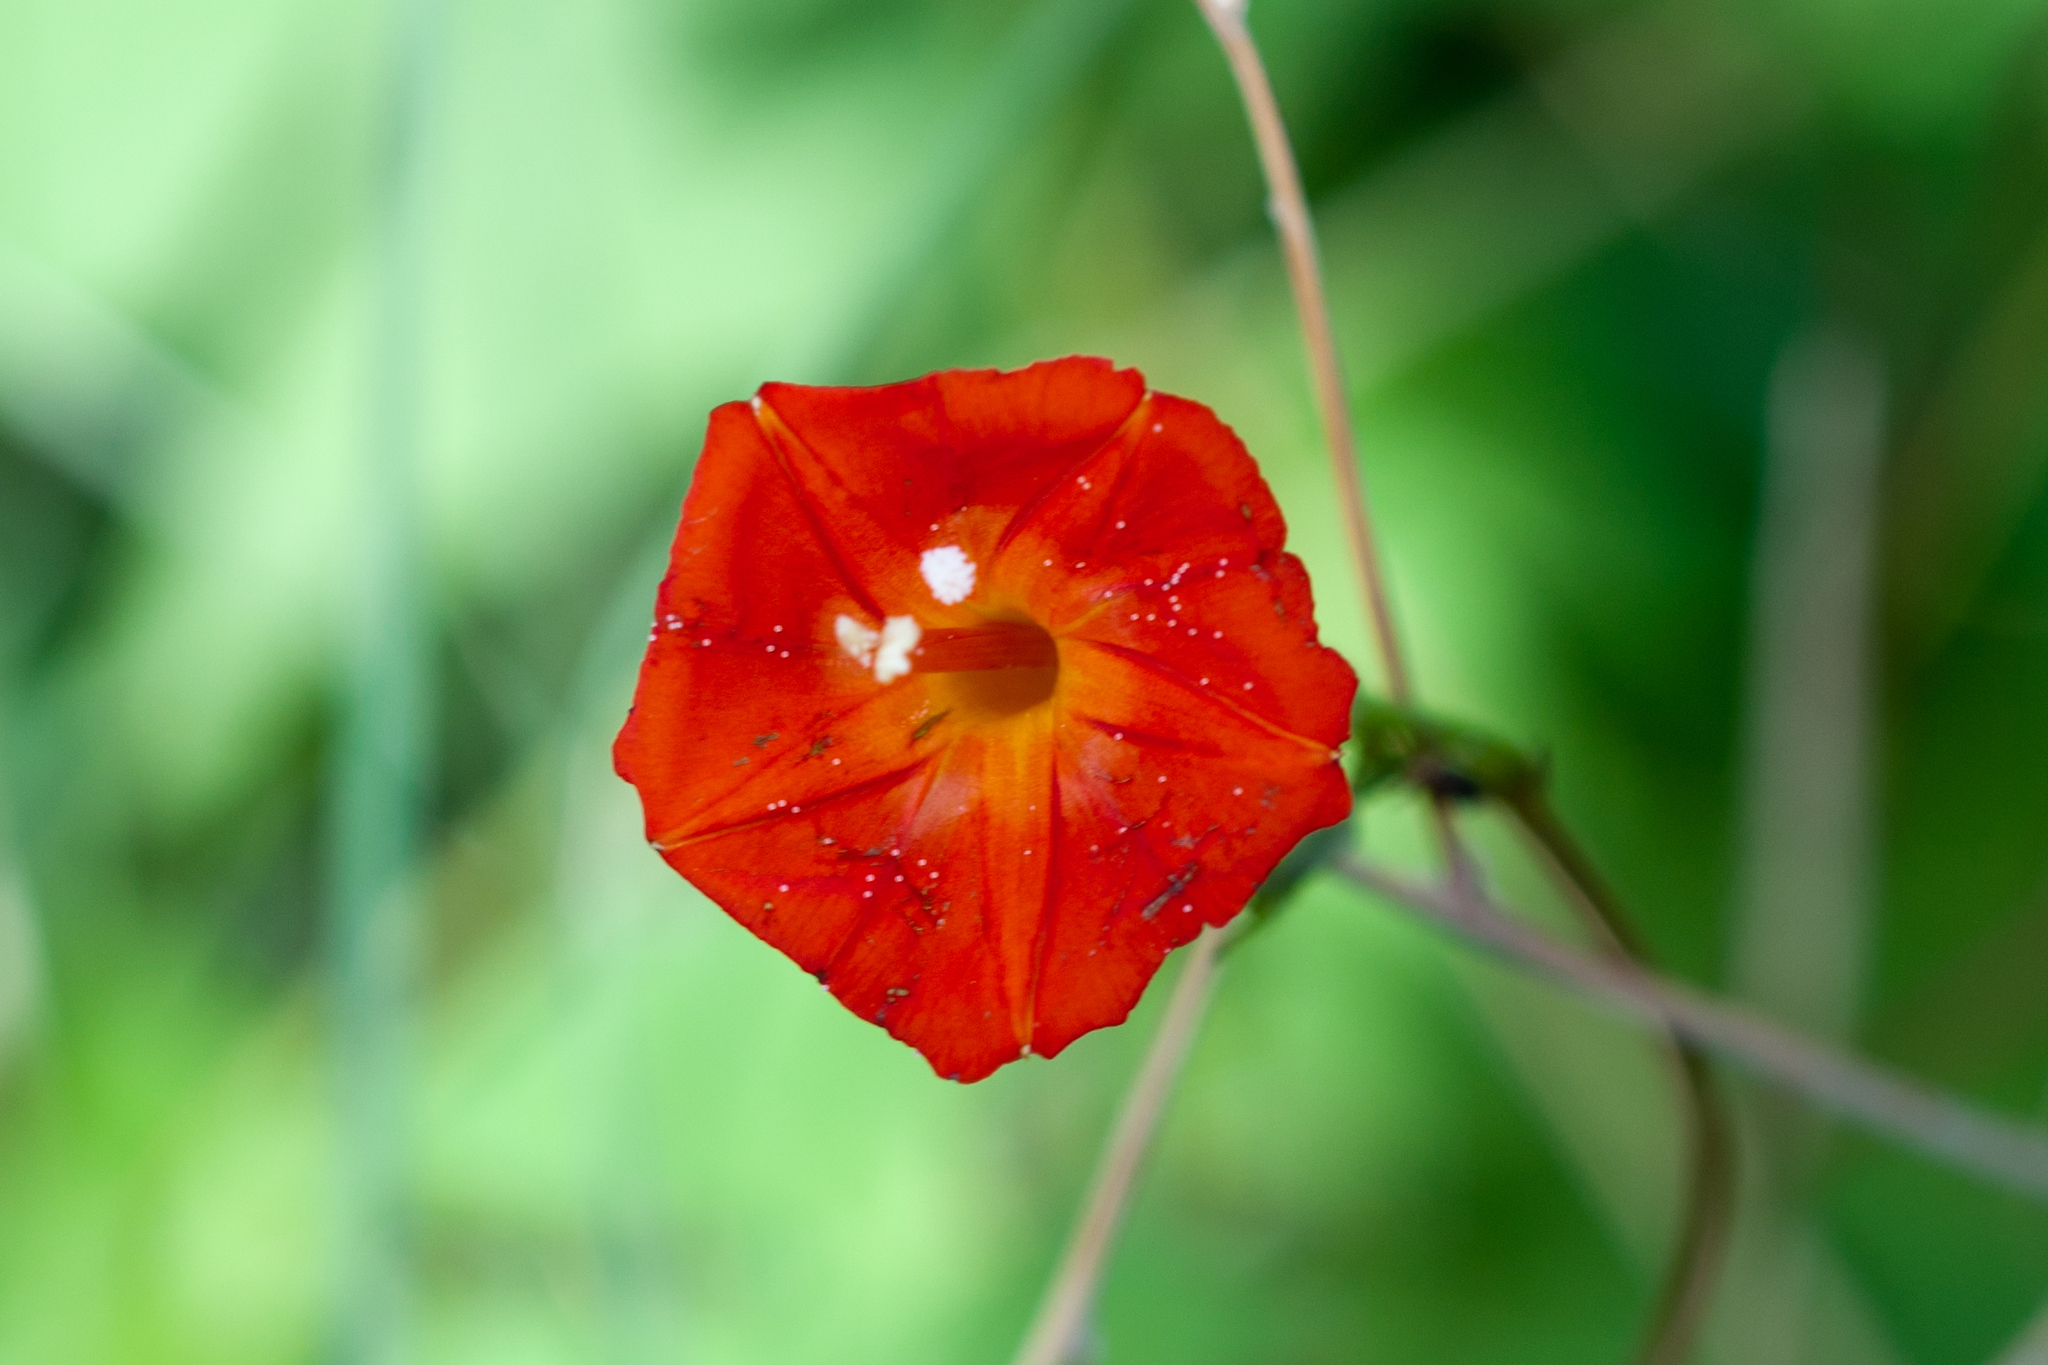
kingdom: Plantae
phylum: Tracheophyta
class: Magnoliopsida
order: Solanales
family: Convolvulaceae
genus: Ipomoea
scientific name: Ipomoea cristulata
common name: Trans-pecos morning-glory
